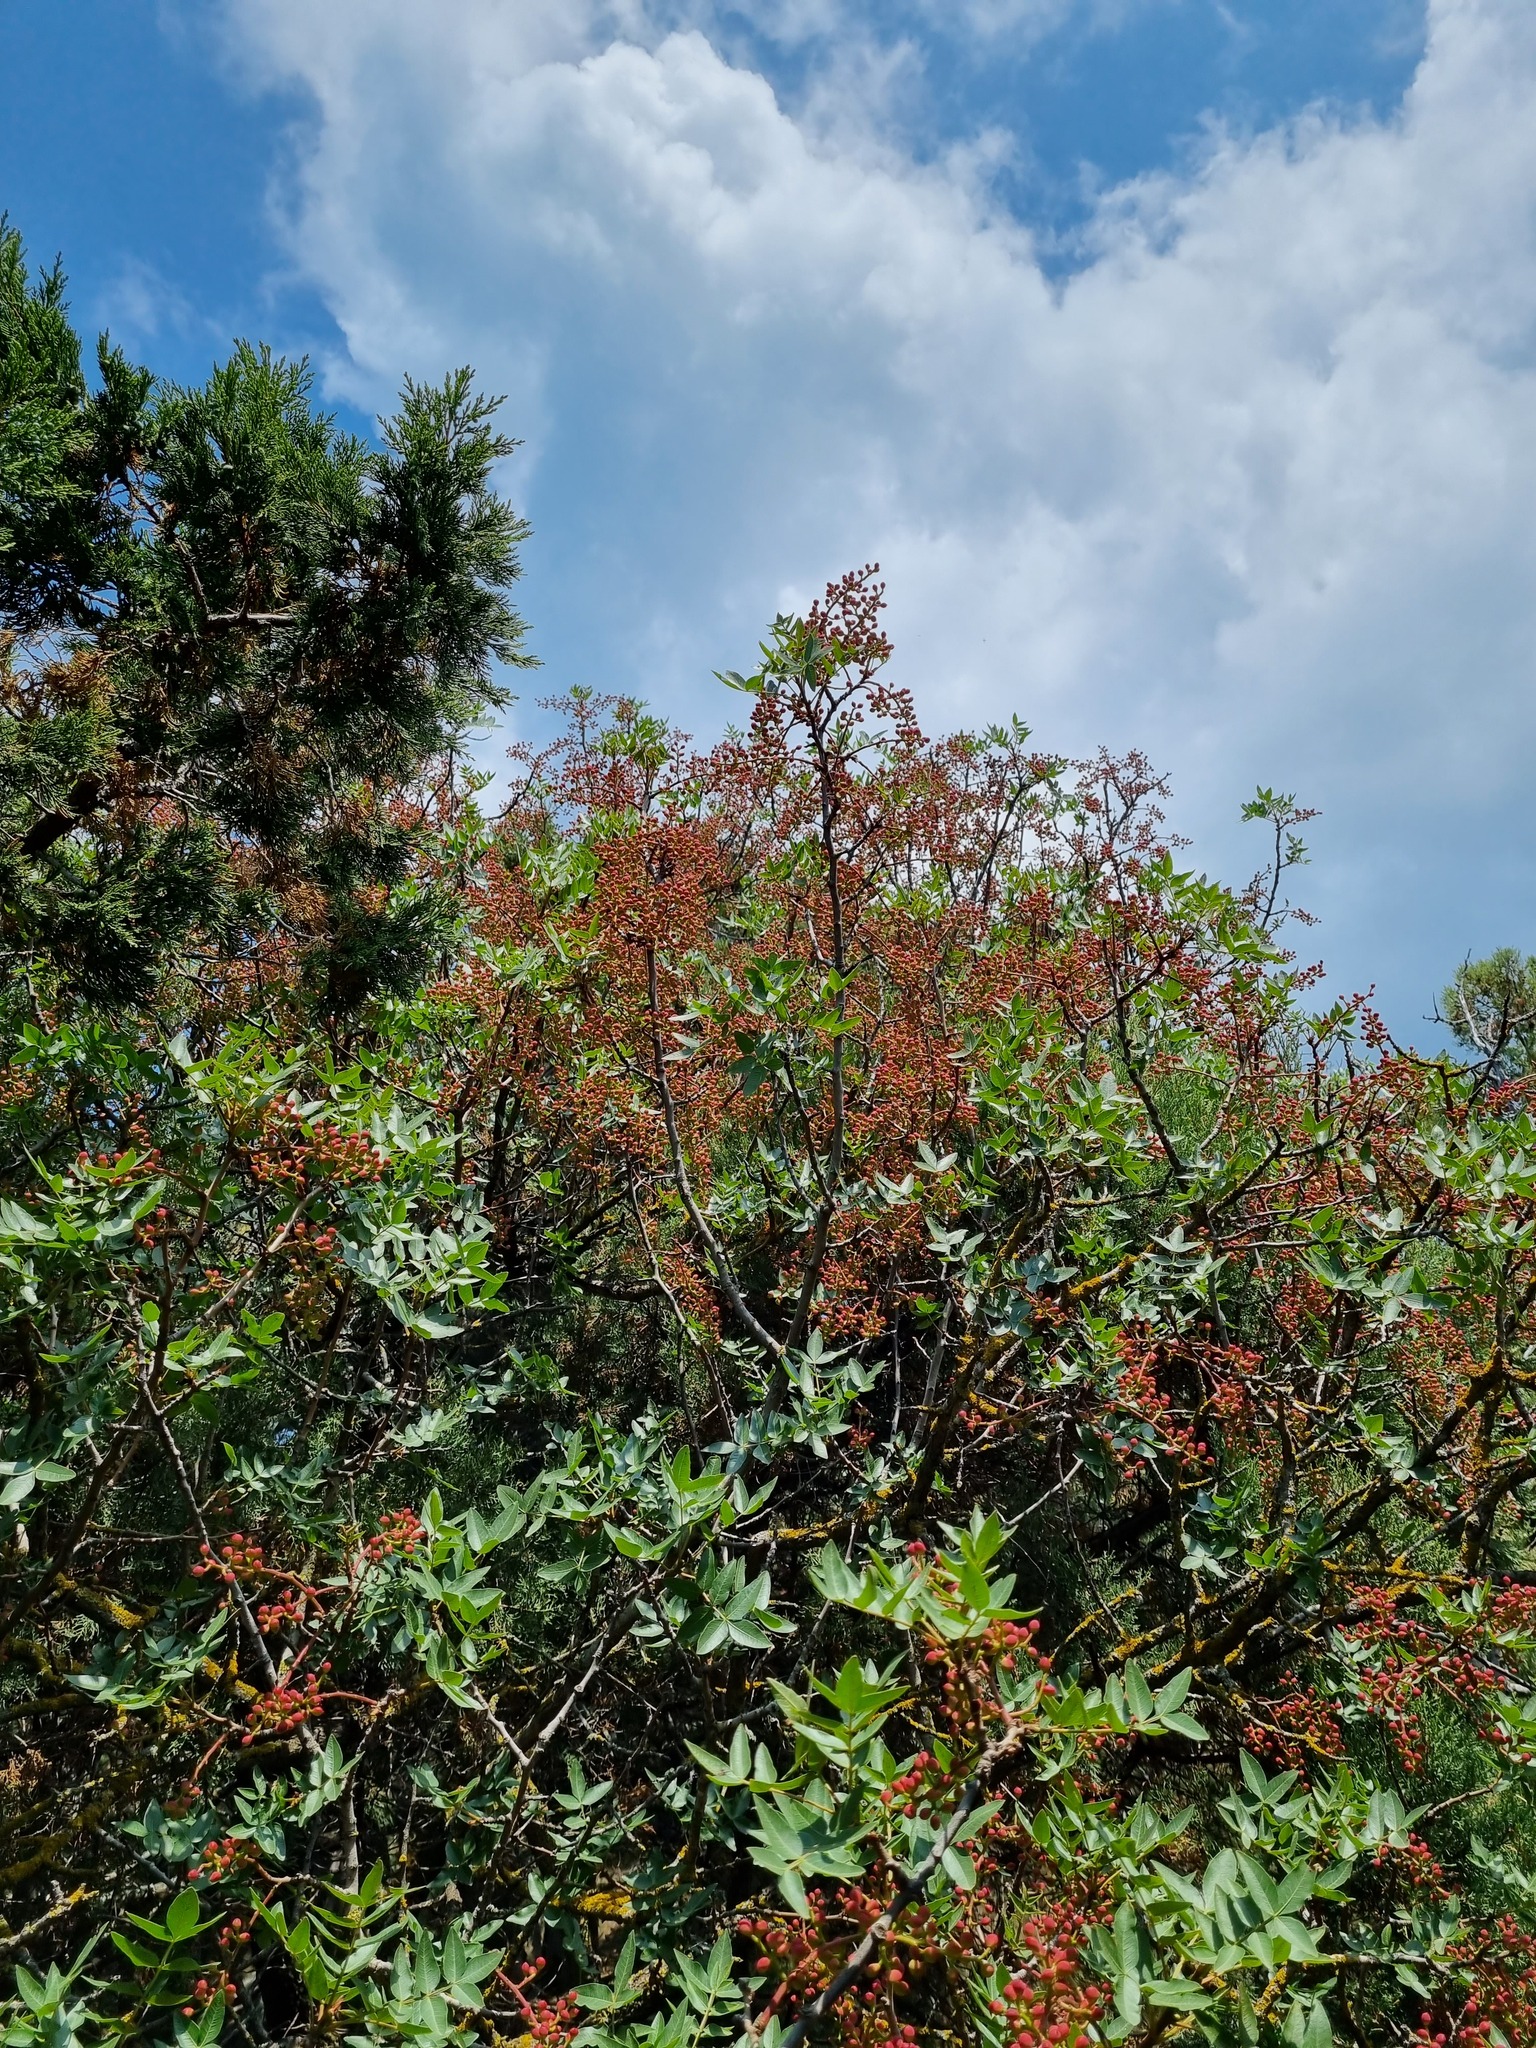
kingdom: Plantae
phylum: Tracheophyta
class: Magnoliopsida
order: Sapindales
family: Anacardiaceae
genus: Pistacia
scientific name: Pistacia atlantica
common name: Mt. atlas mastic tree
